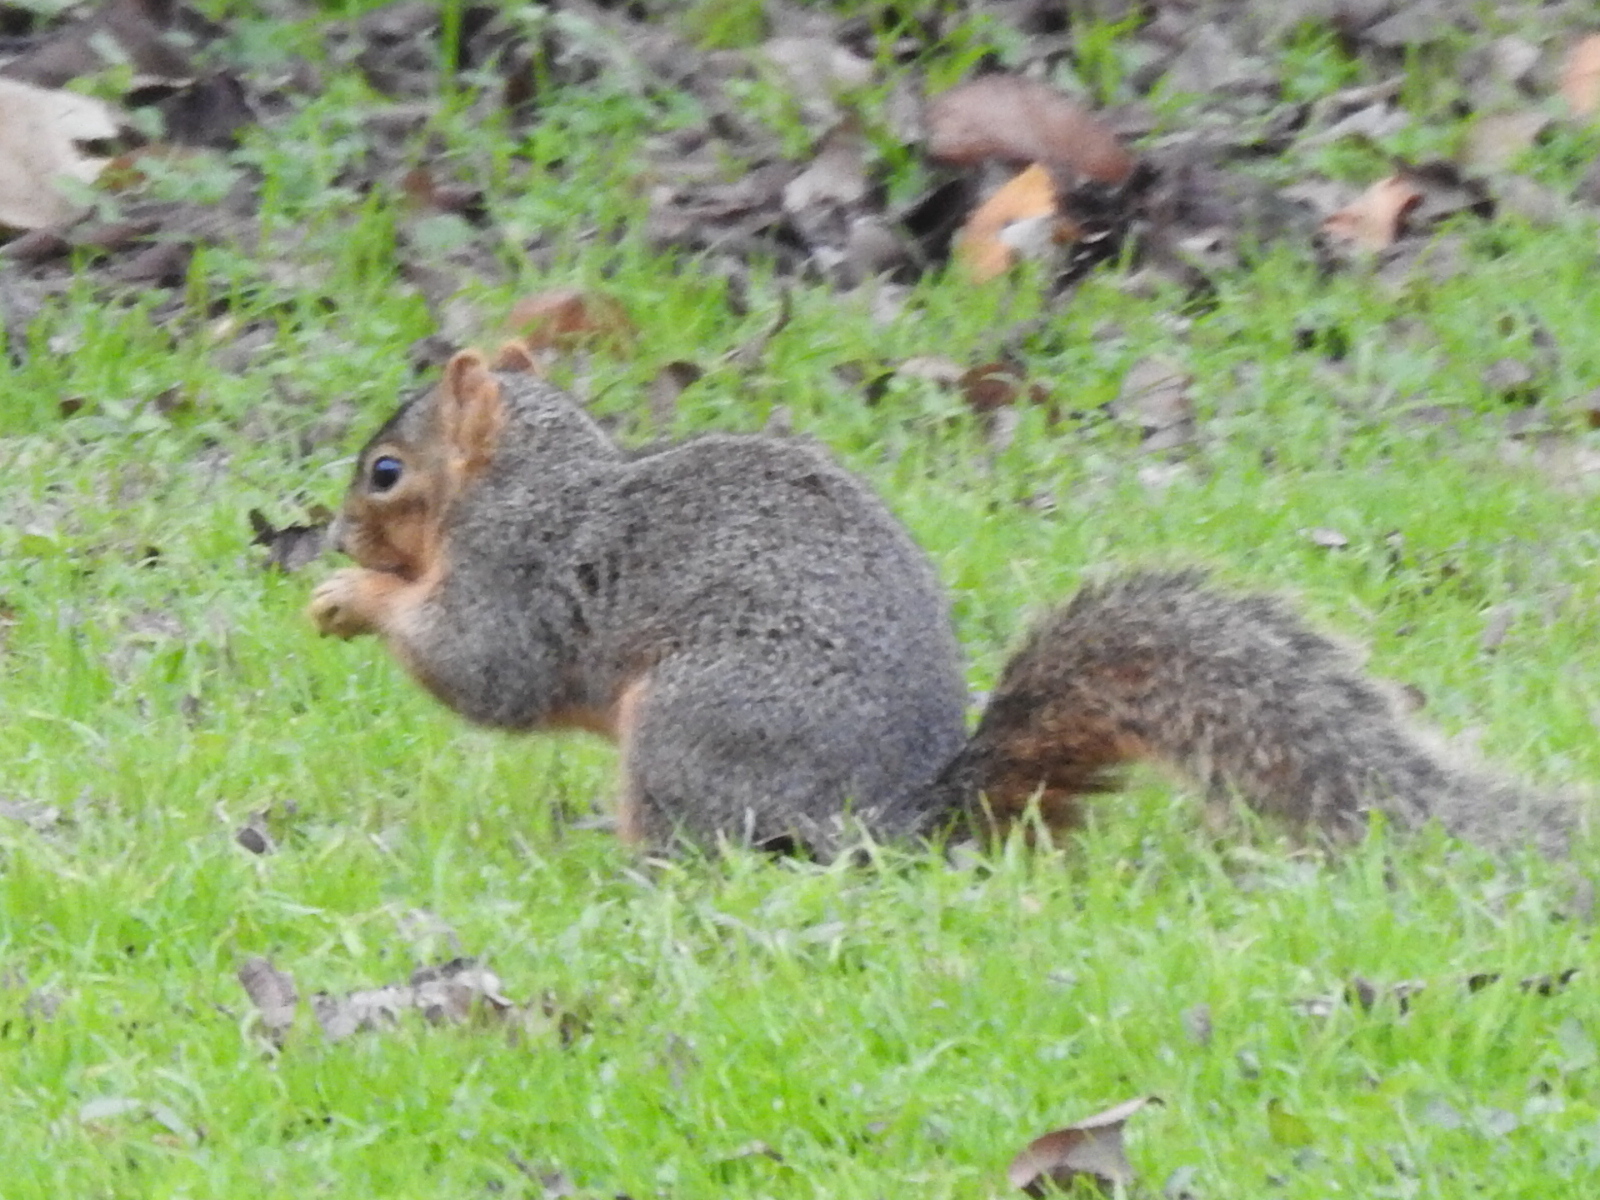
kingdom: Animalia
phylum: Chordata
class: Mammalia
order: Rodentia
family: Sciuridae
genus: Sciurus
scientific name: Sciurus niger
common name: Fox squirrel
